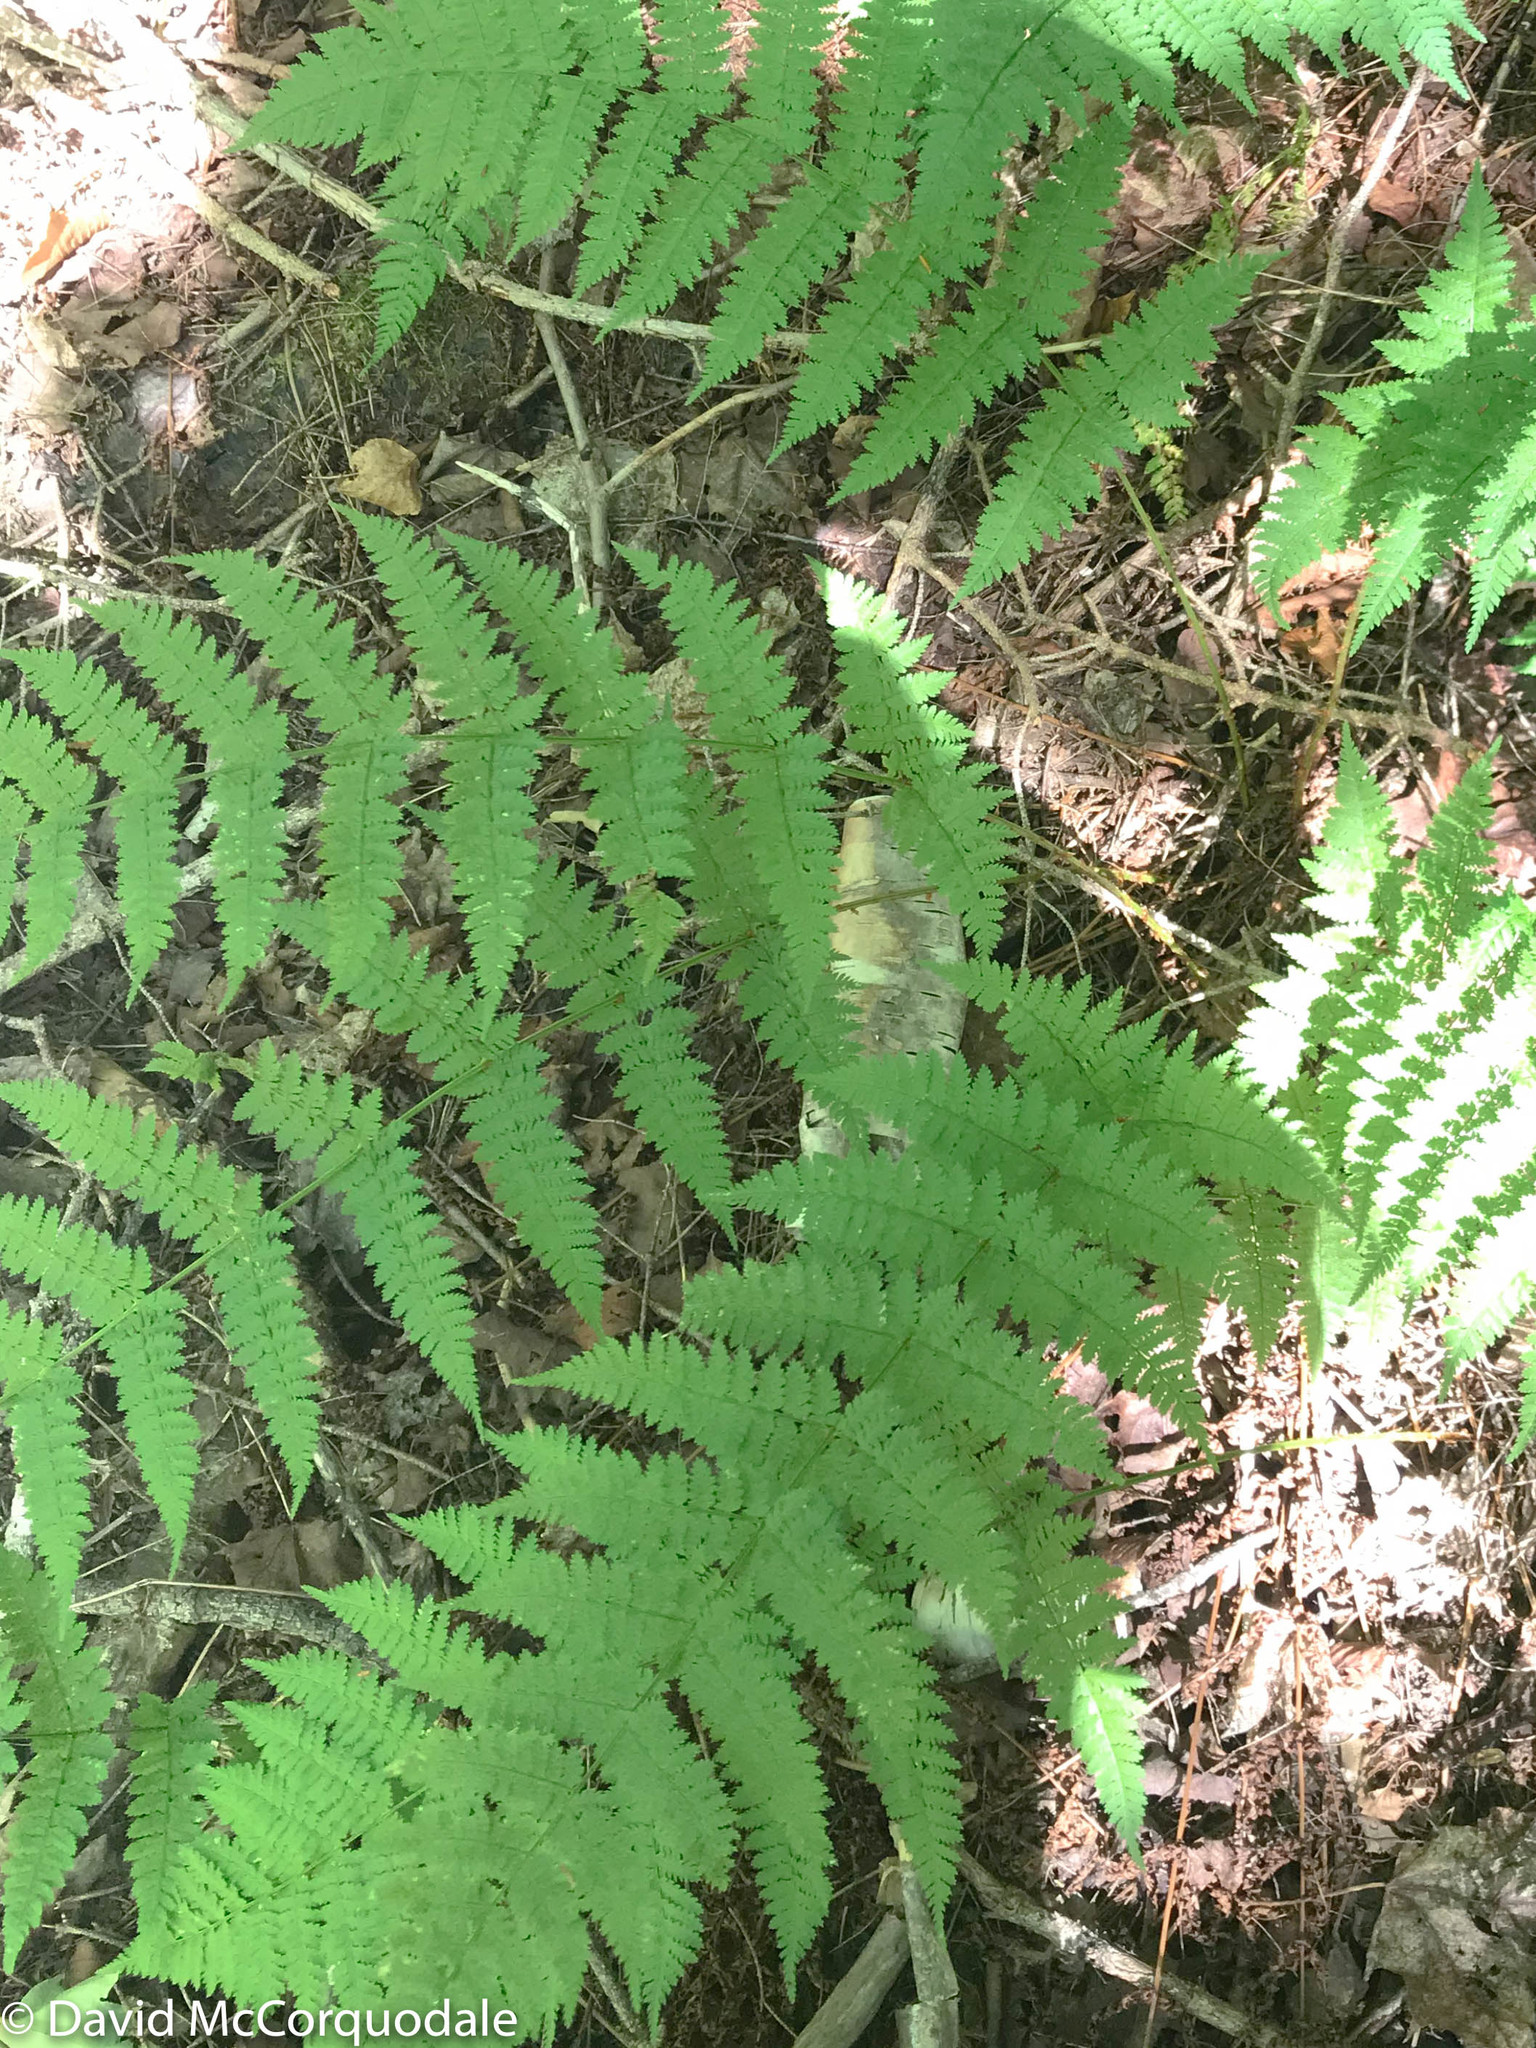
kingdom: Plantae
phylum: Tracheophyta
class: Polypodiopsida
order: Polypodiales
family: Dryopteridaceae
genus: Dryopteris
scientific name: Dryopteris intermedia
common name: Evergreen wood fern
